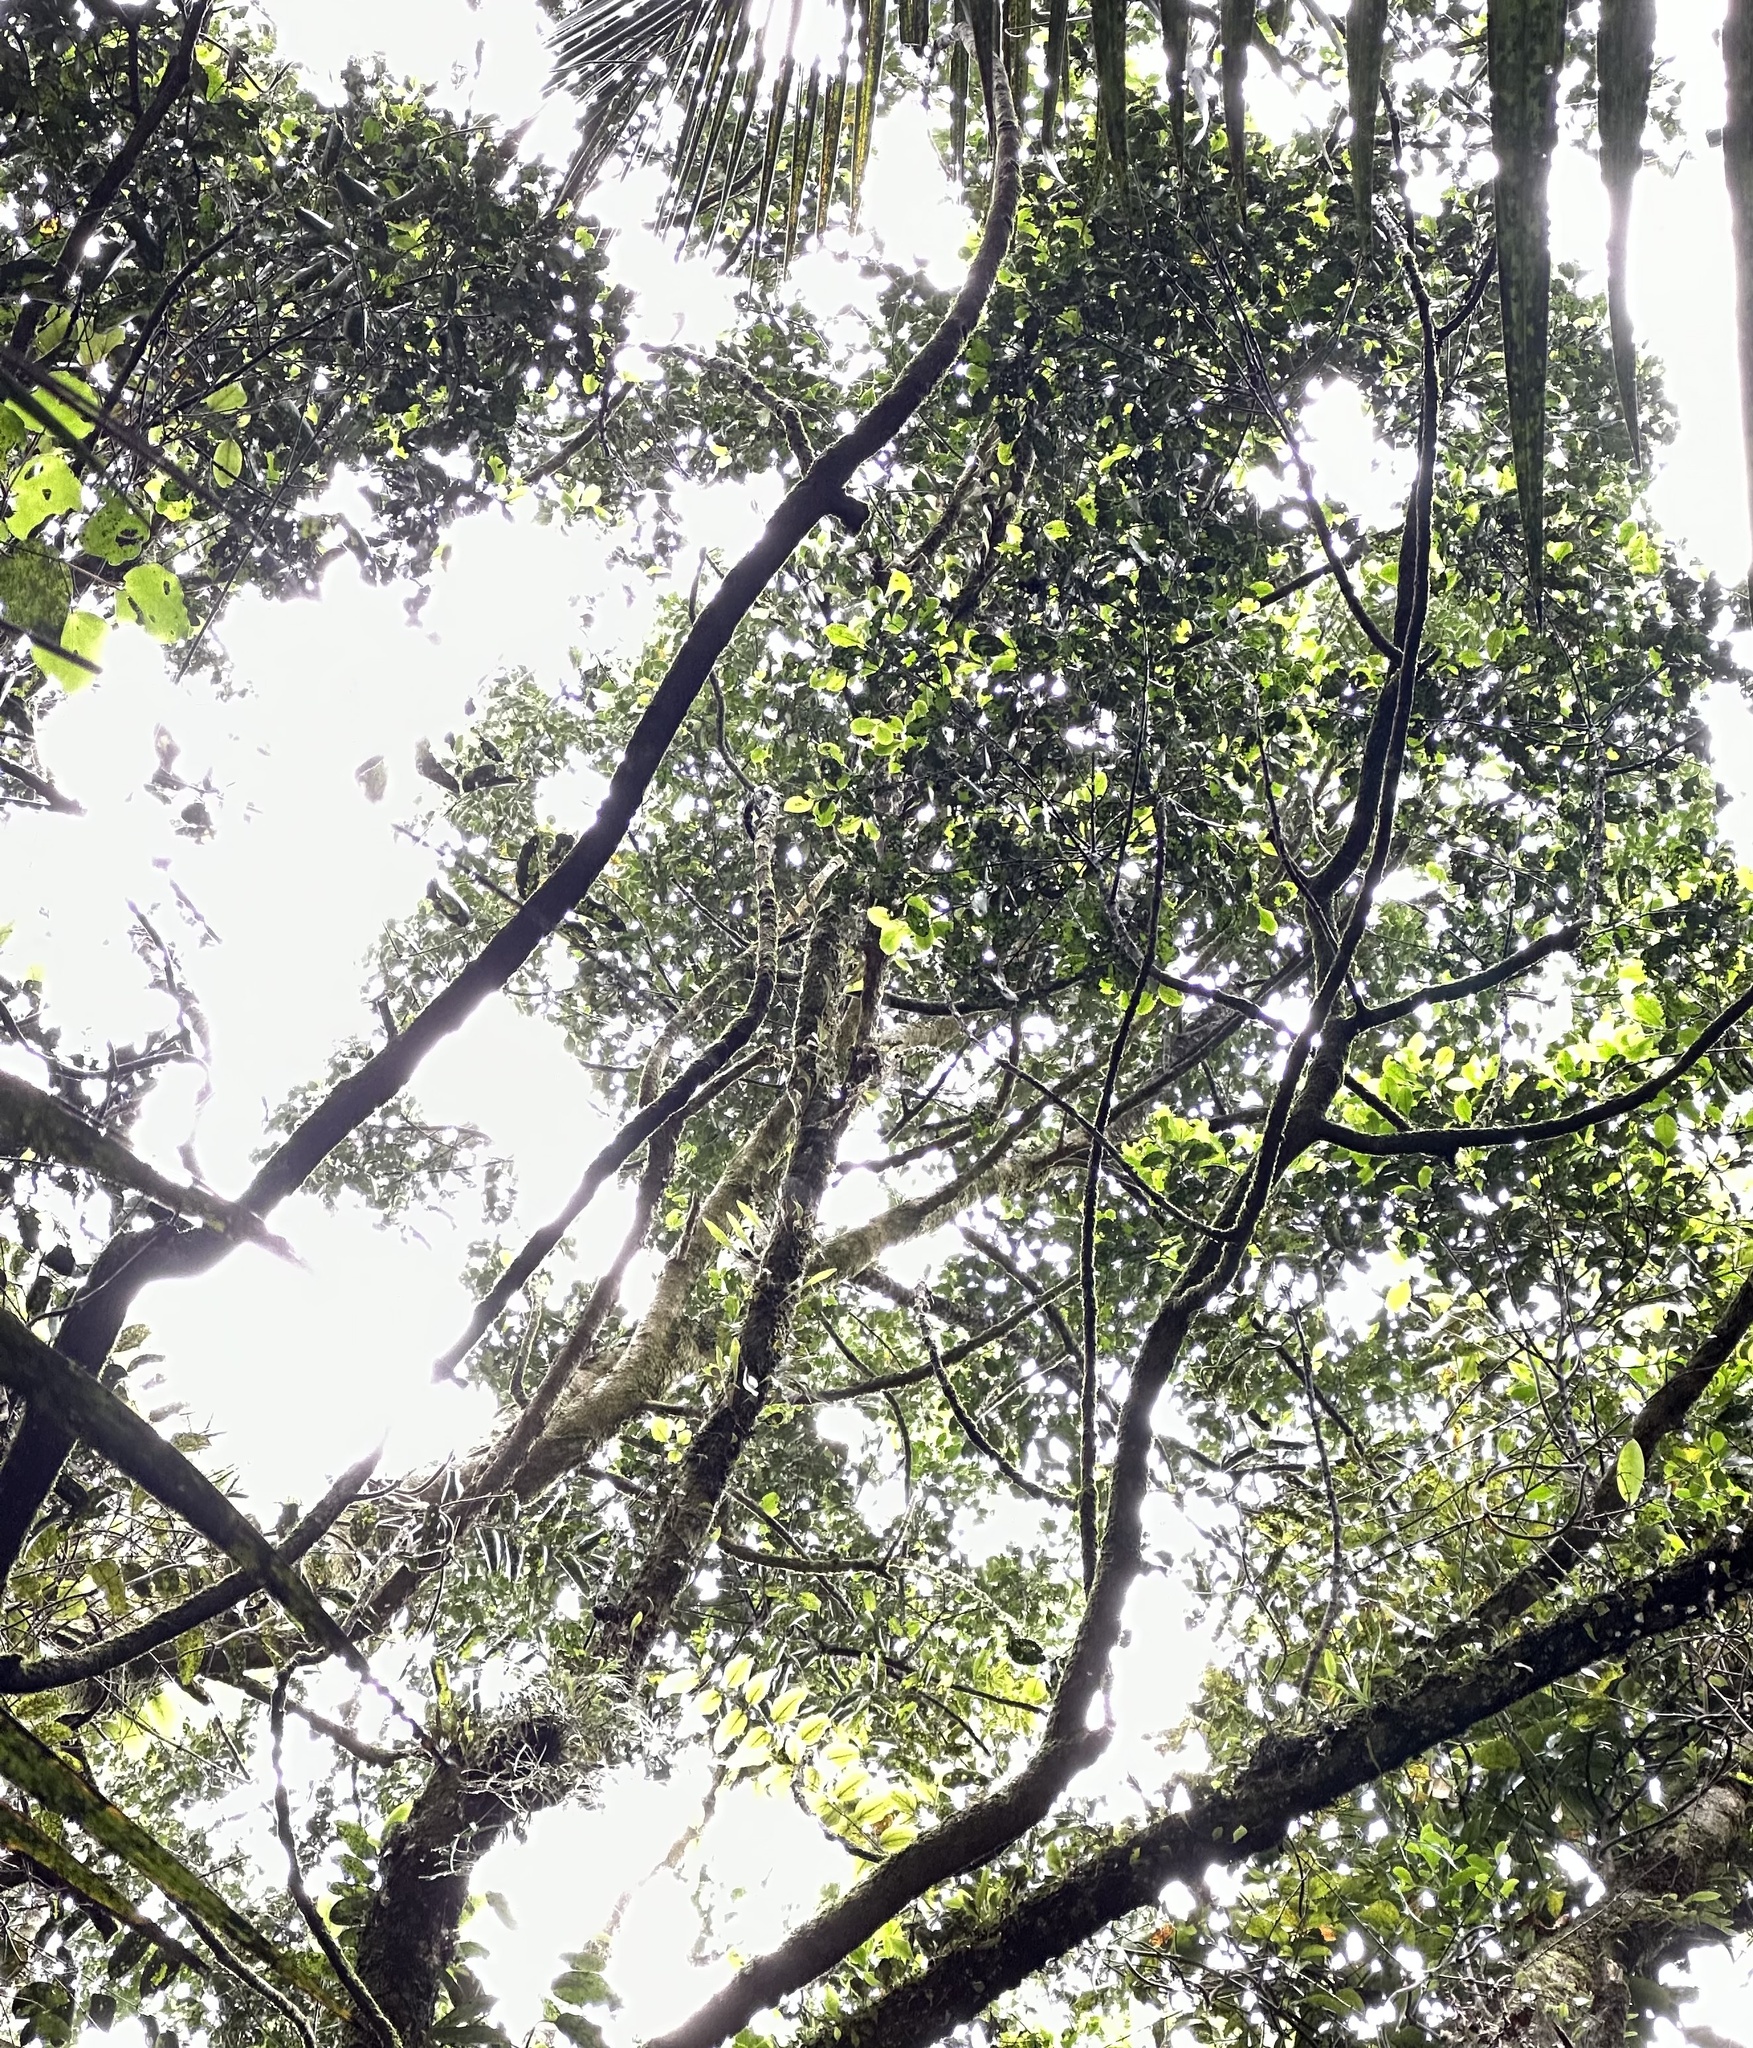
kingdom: Plantae
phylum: Tracheophyta
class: Magnoliopsida
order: Laurales
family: Atherospermataceae
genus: Laurelia
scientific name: Laurelia novae-zelandiae
